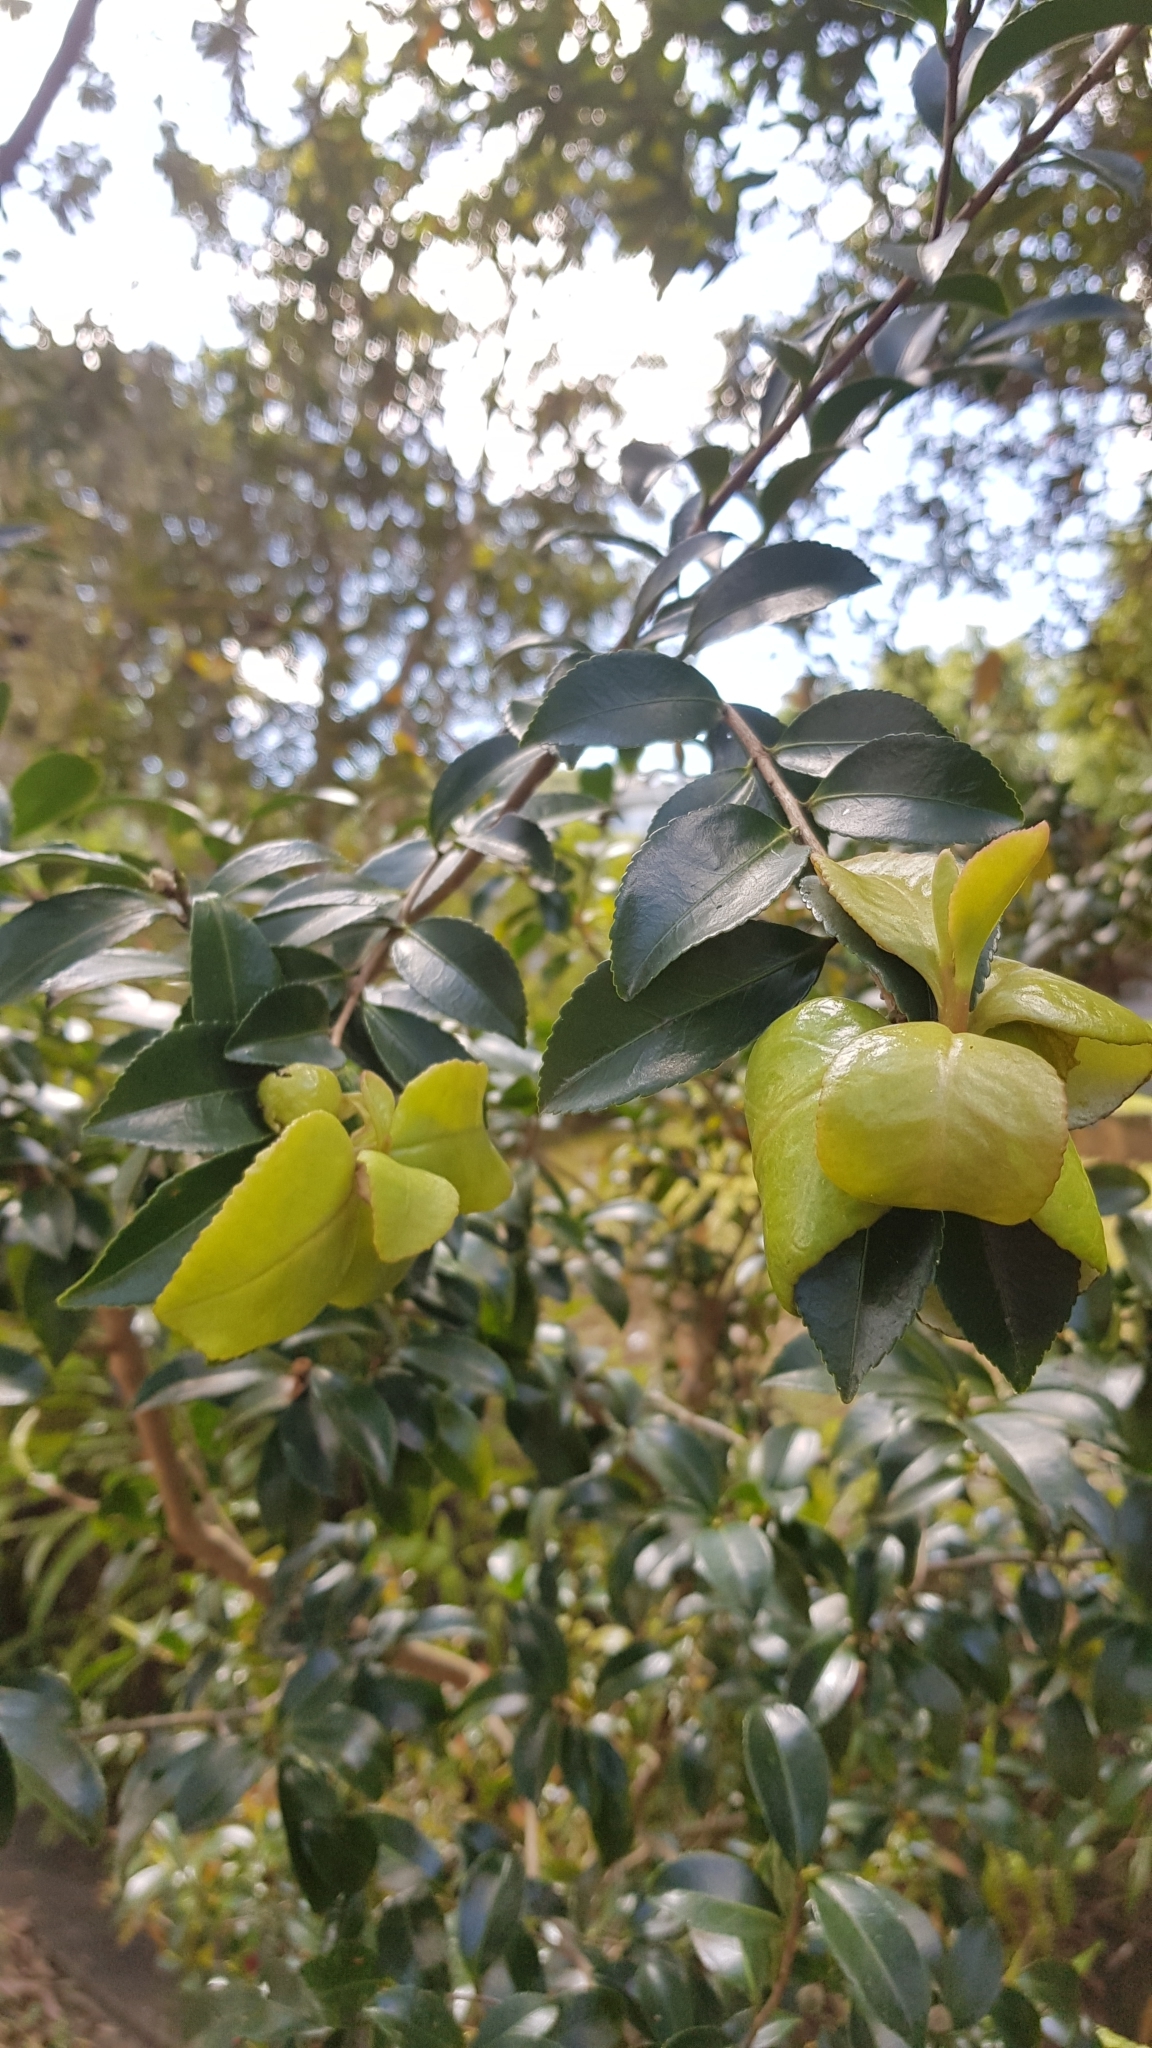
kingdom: Fungi
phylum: Basidiomycota
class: Exobasidiomycetes
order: Exobasidiales
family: Exobasidiaceae
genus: Exobasidium
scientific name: Exobasidium camelliae
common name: Camellia gall
